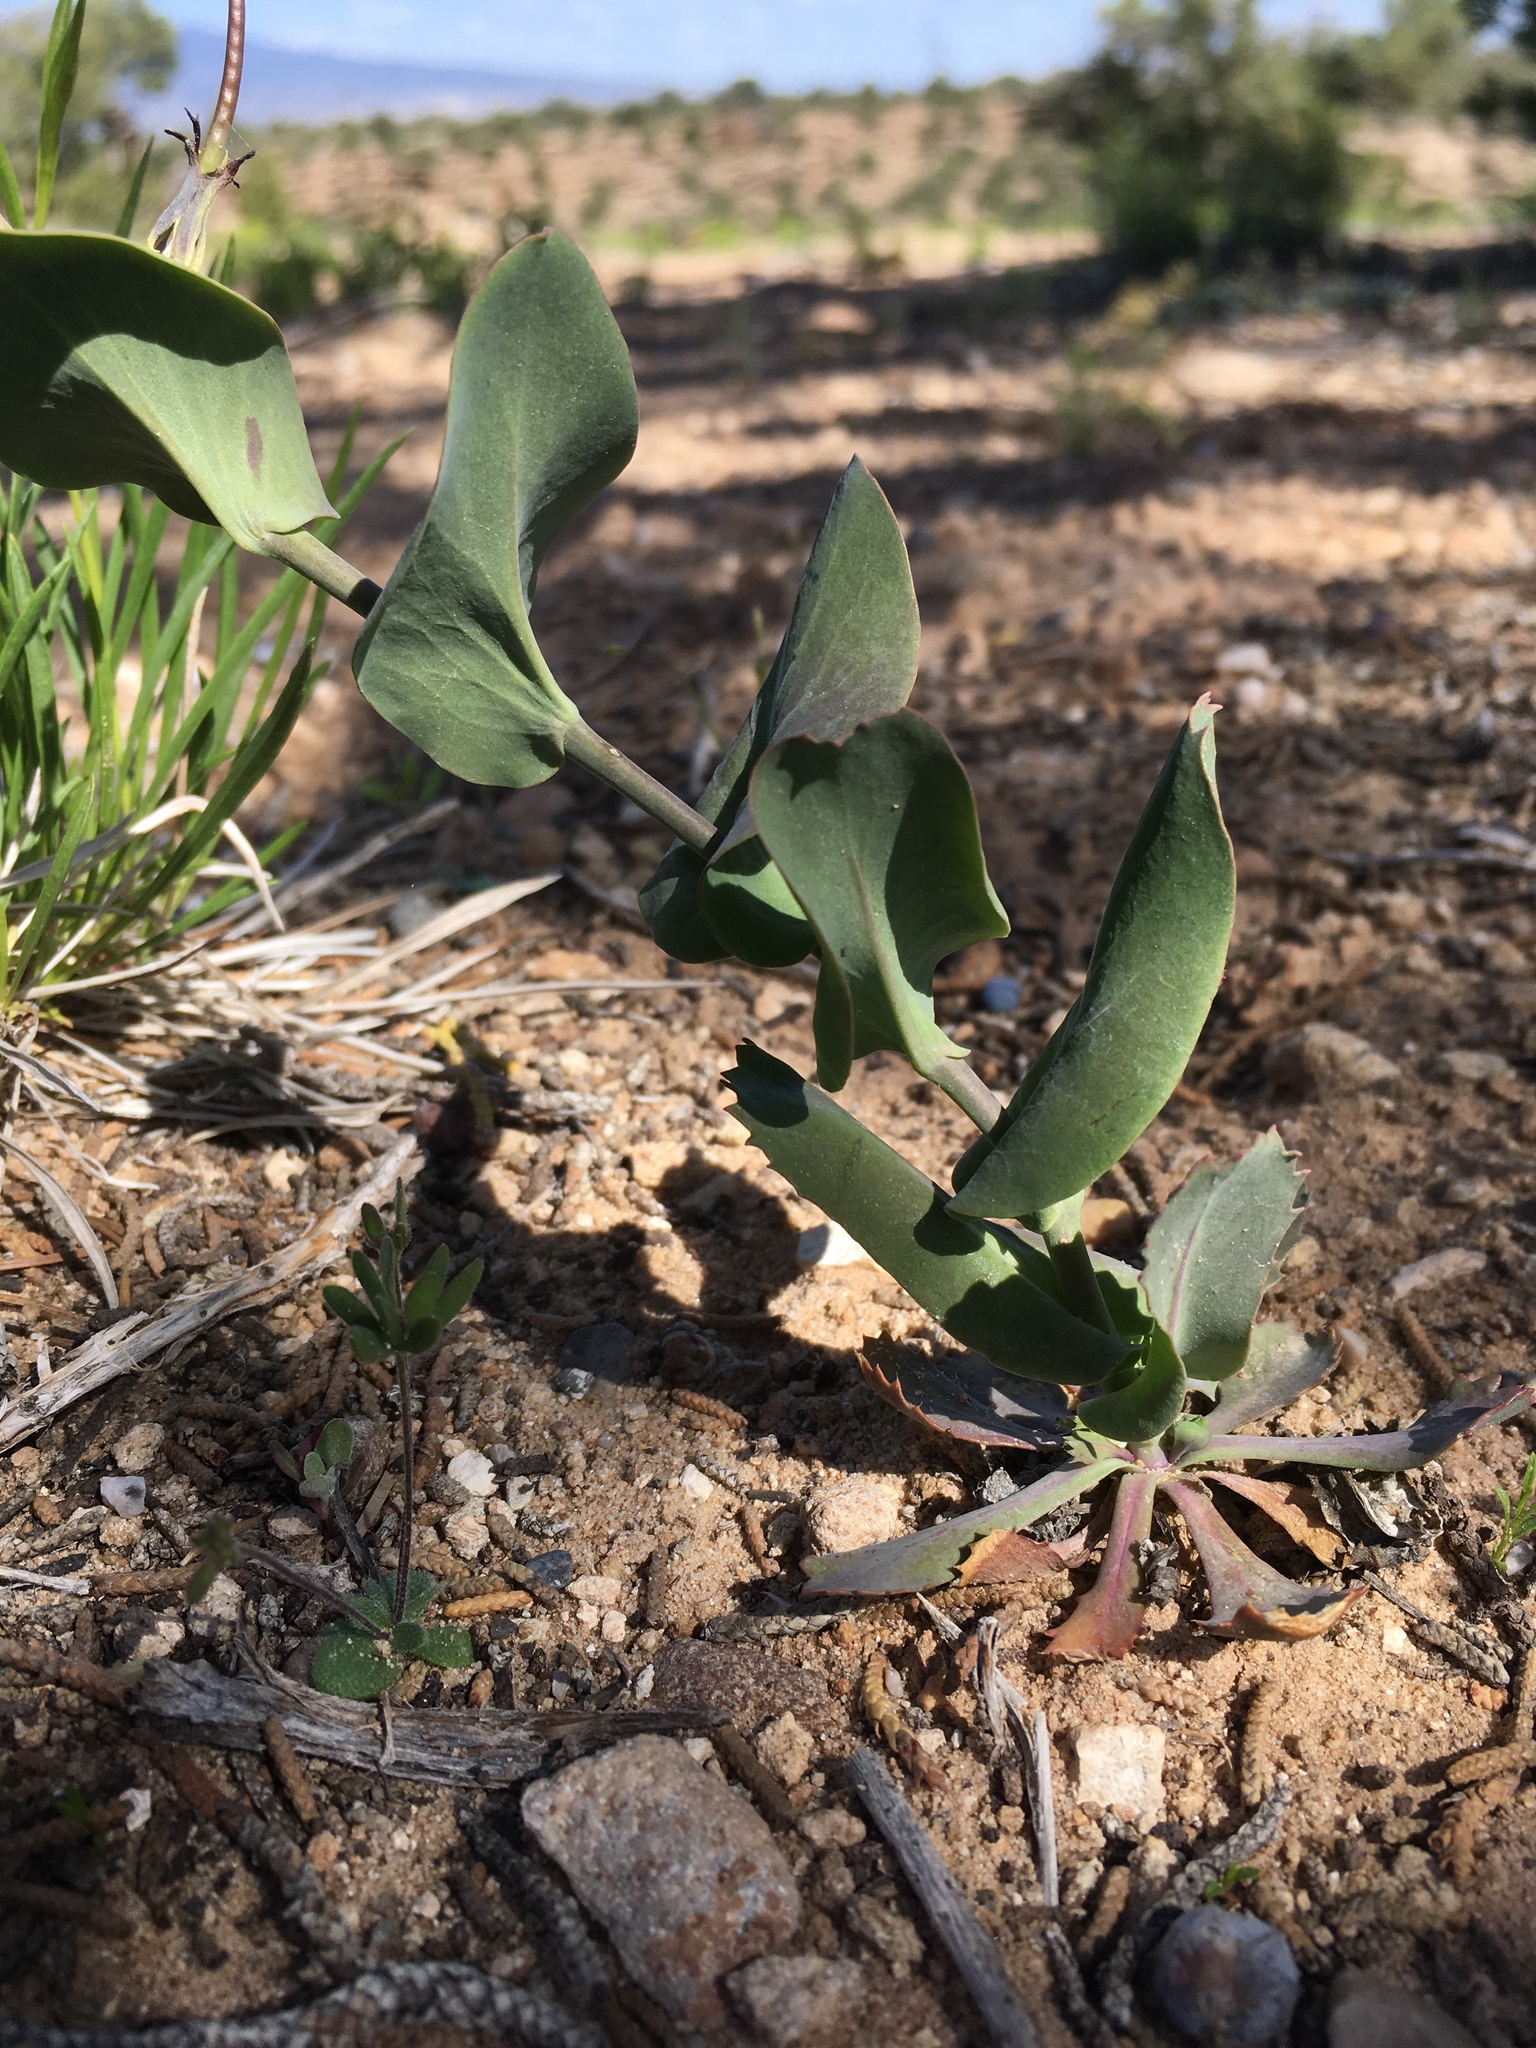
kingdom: Plantae
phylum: Tracheophyta
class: Magnoliopsida
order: Brassicales
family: Brassicaceae
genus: Streptanthus
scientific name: Streptanthus cordatus
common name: Heart-leaf jewel-flower
